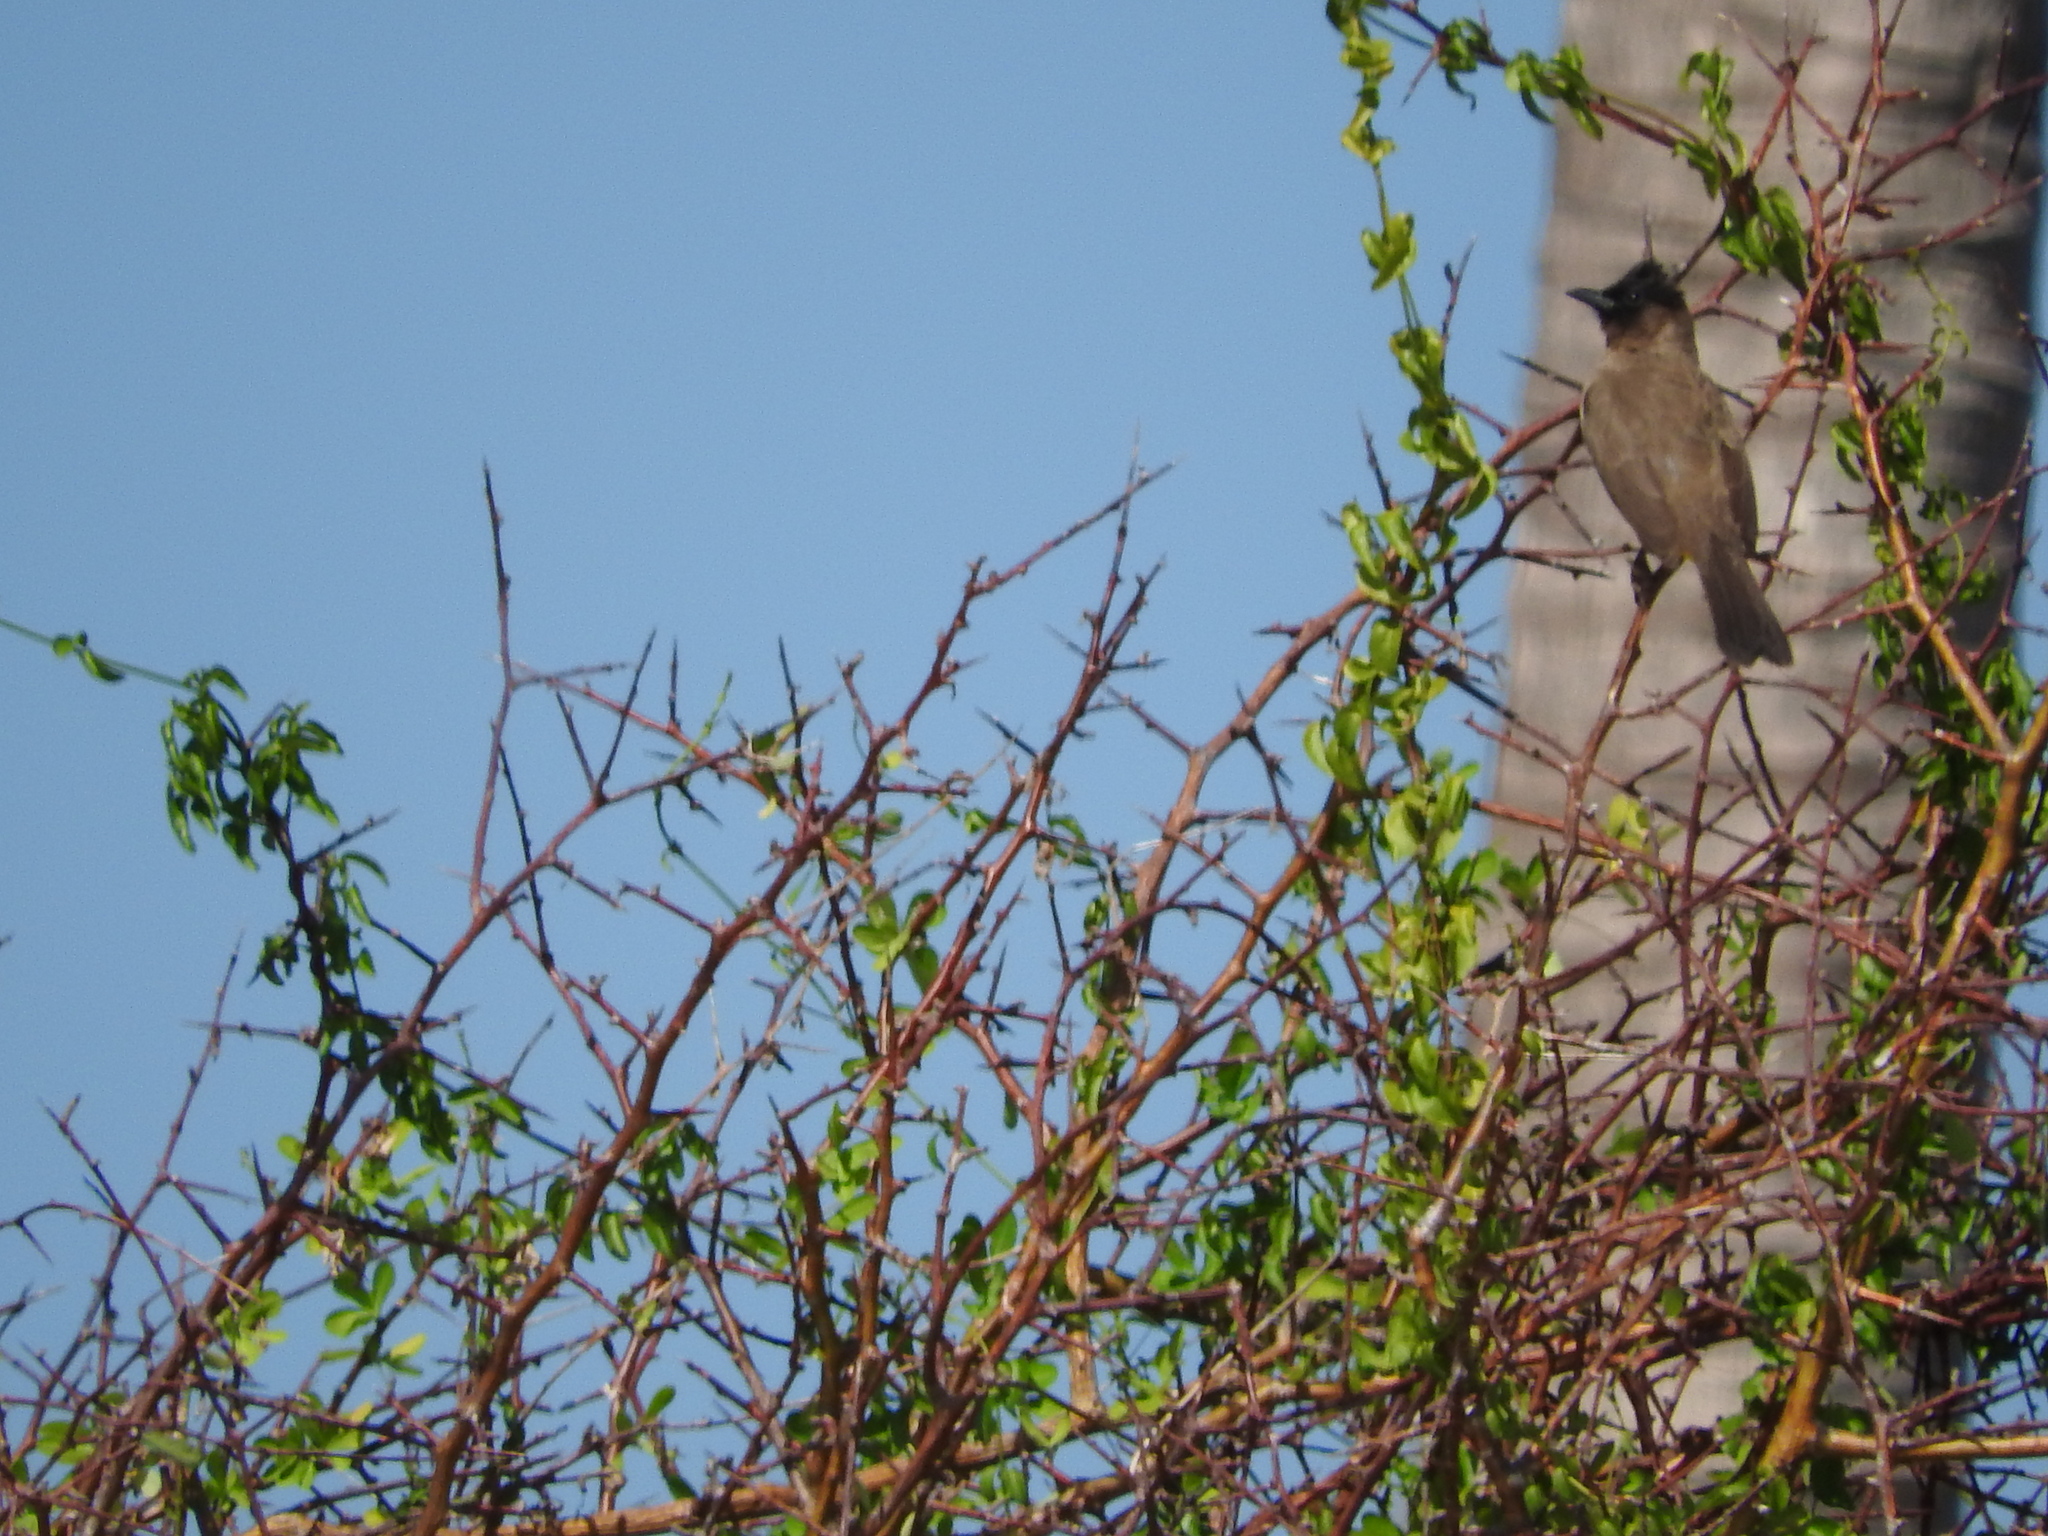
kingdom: Animalia
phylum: Chordata
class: Aves
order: Passeriformes
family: Pycnonotidae
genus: Pycnonotus
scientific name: Pycnonotus barbatus
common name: Common bulbul
